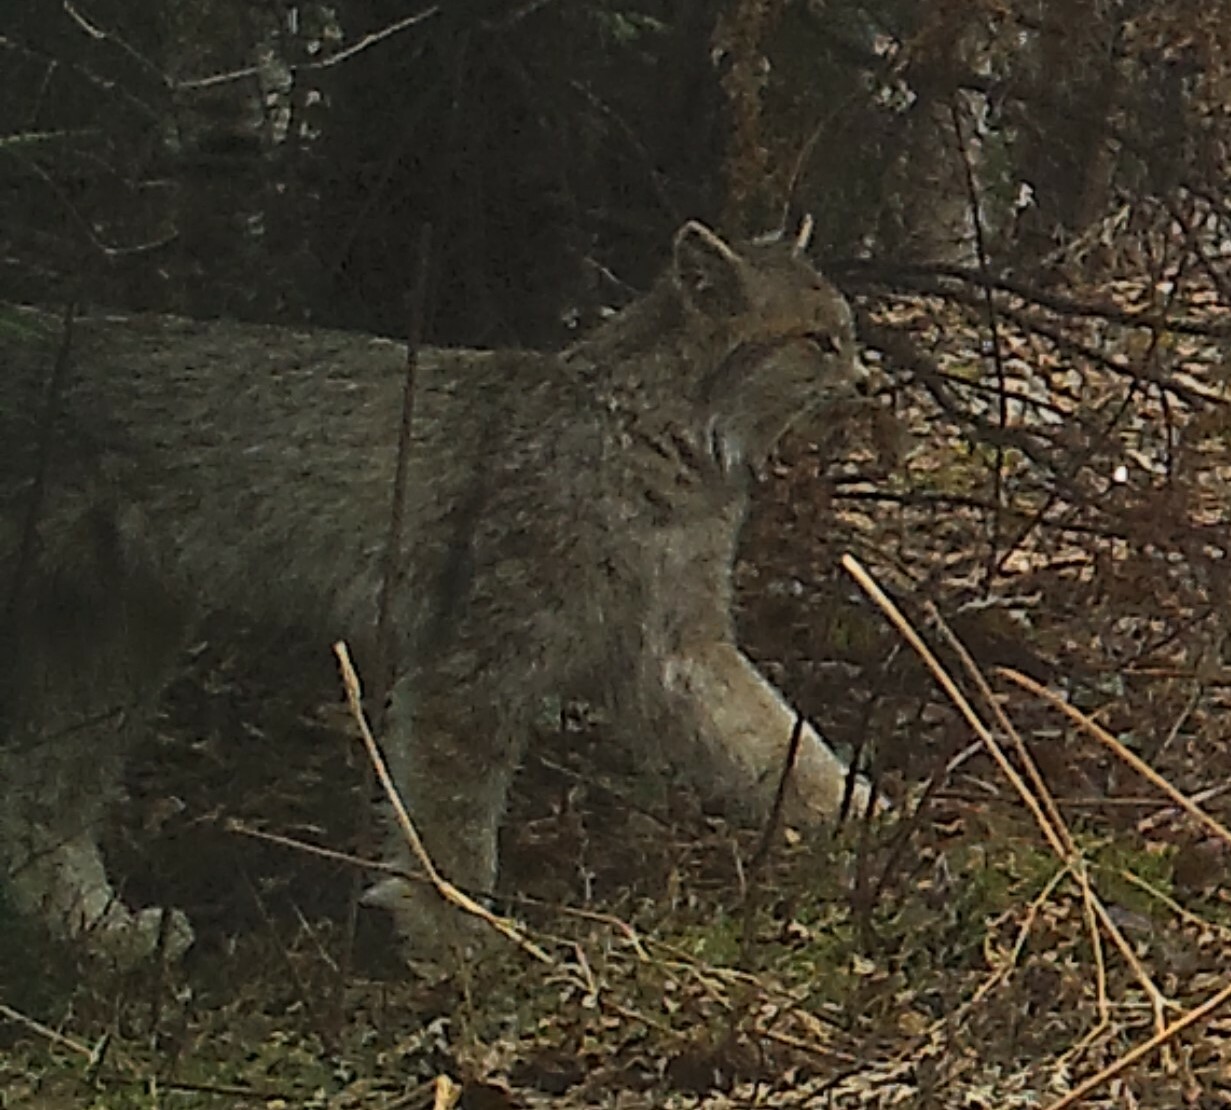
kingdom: Animalia
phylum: Chordata
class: Mammalia
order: Carnivora
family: Felidae
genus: Lynx
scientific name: Lynx canadensis
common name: Canadian lynx
